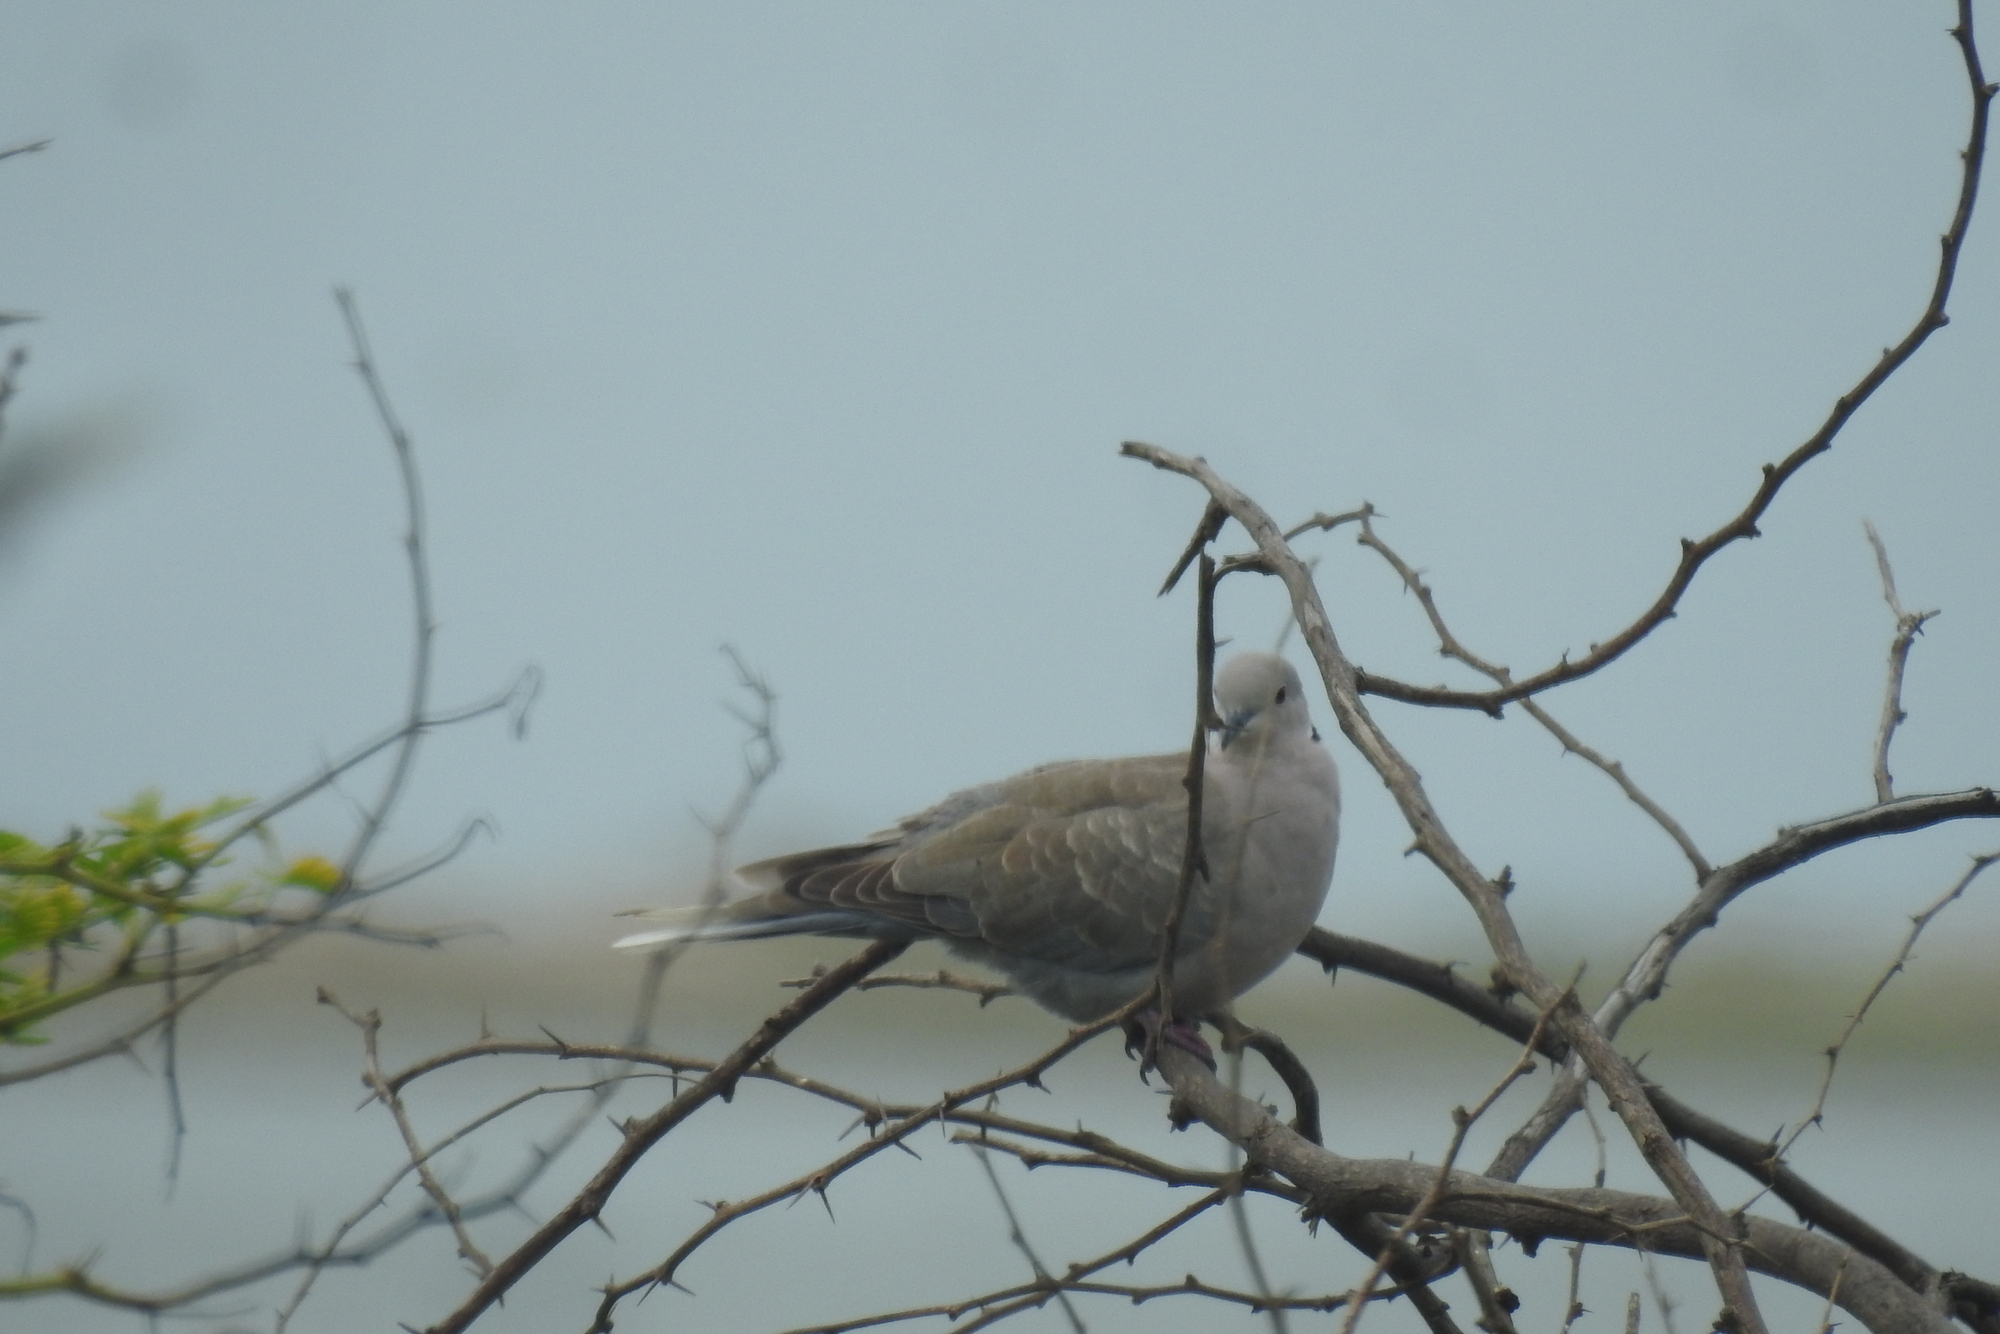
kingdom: Animalia
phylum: Chordata
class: Aves
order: Columbiformes
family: Columbidae
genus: Streptopelia
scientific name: Streptopelia decaocto
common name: Eurasian collared dove
